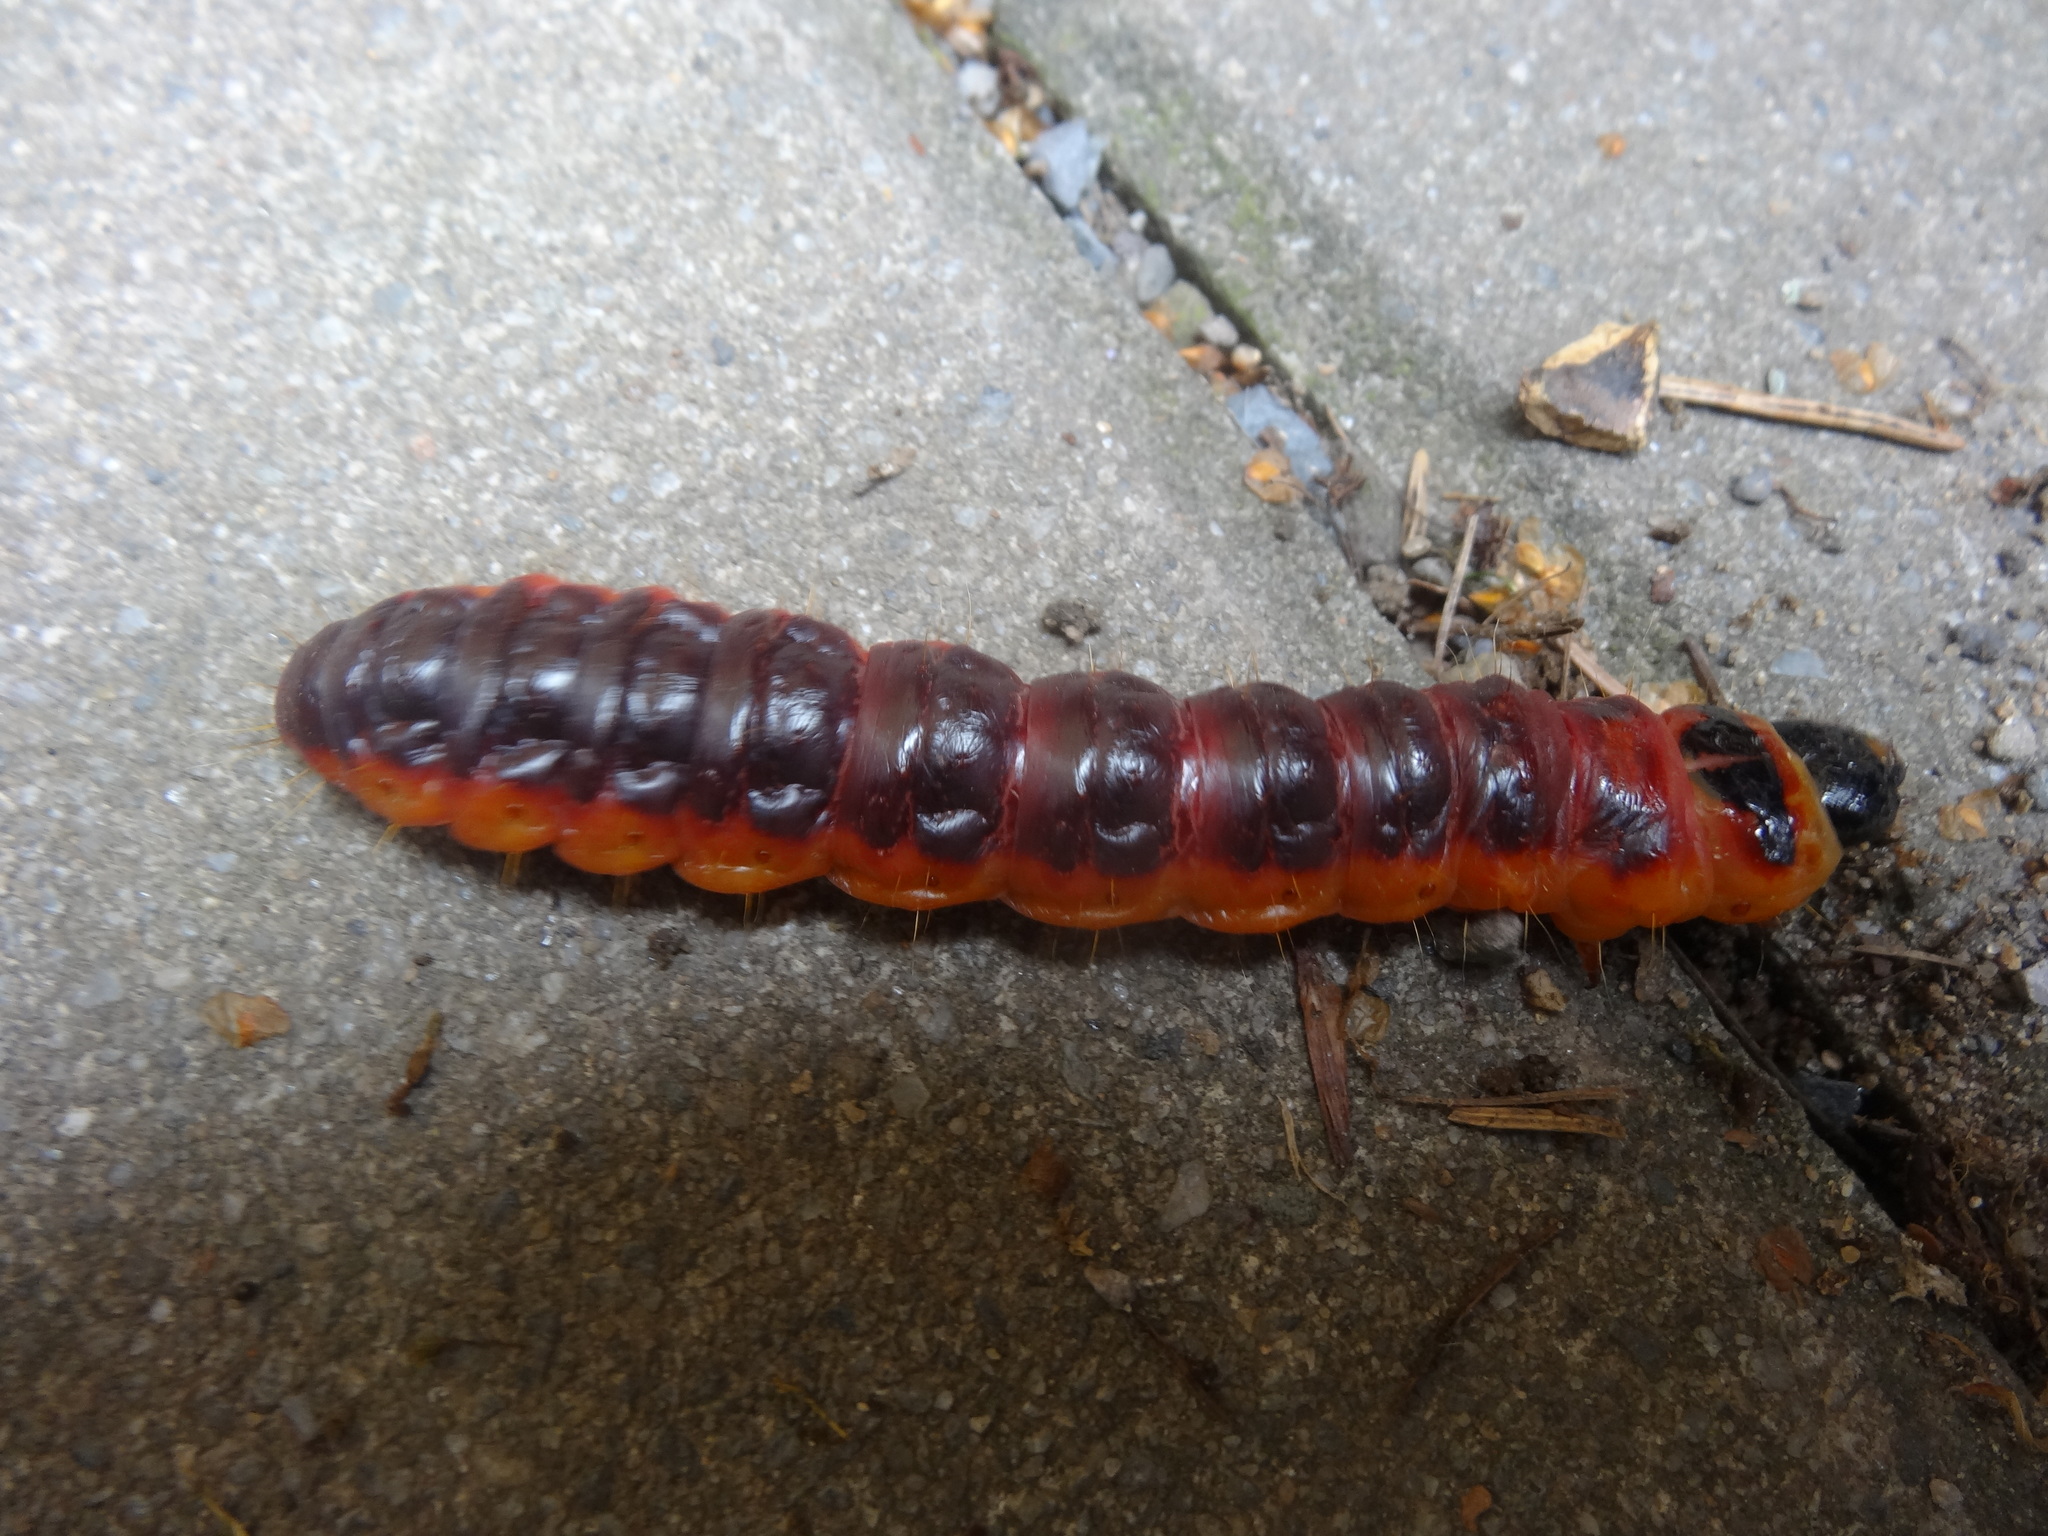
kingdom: Animalia
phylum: Arthropoda
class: Insecta
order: Lepidoptera
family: Cossidae
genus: Cossus
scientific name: Cossus cossus
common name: Goat moth
